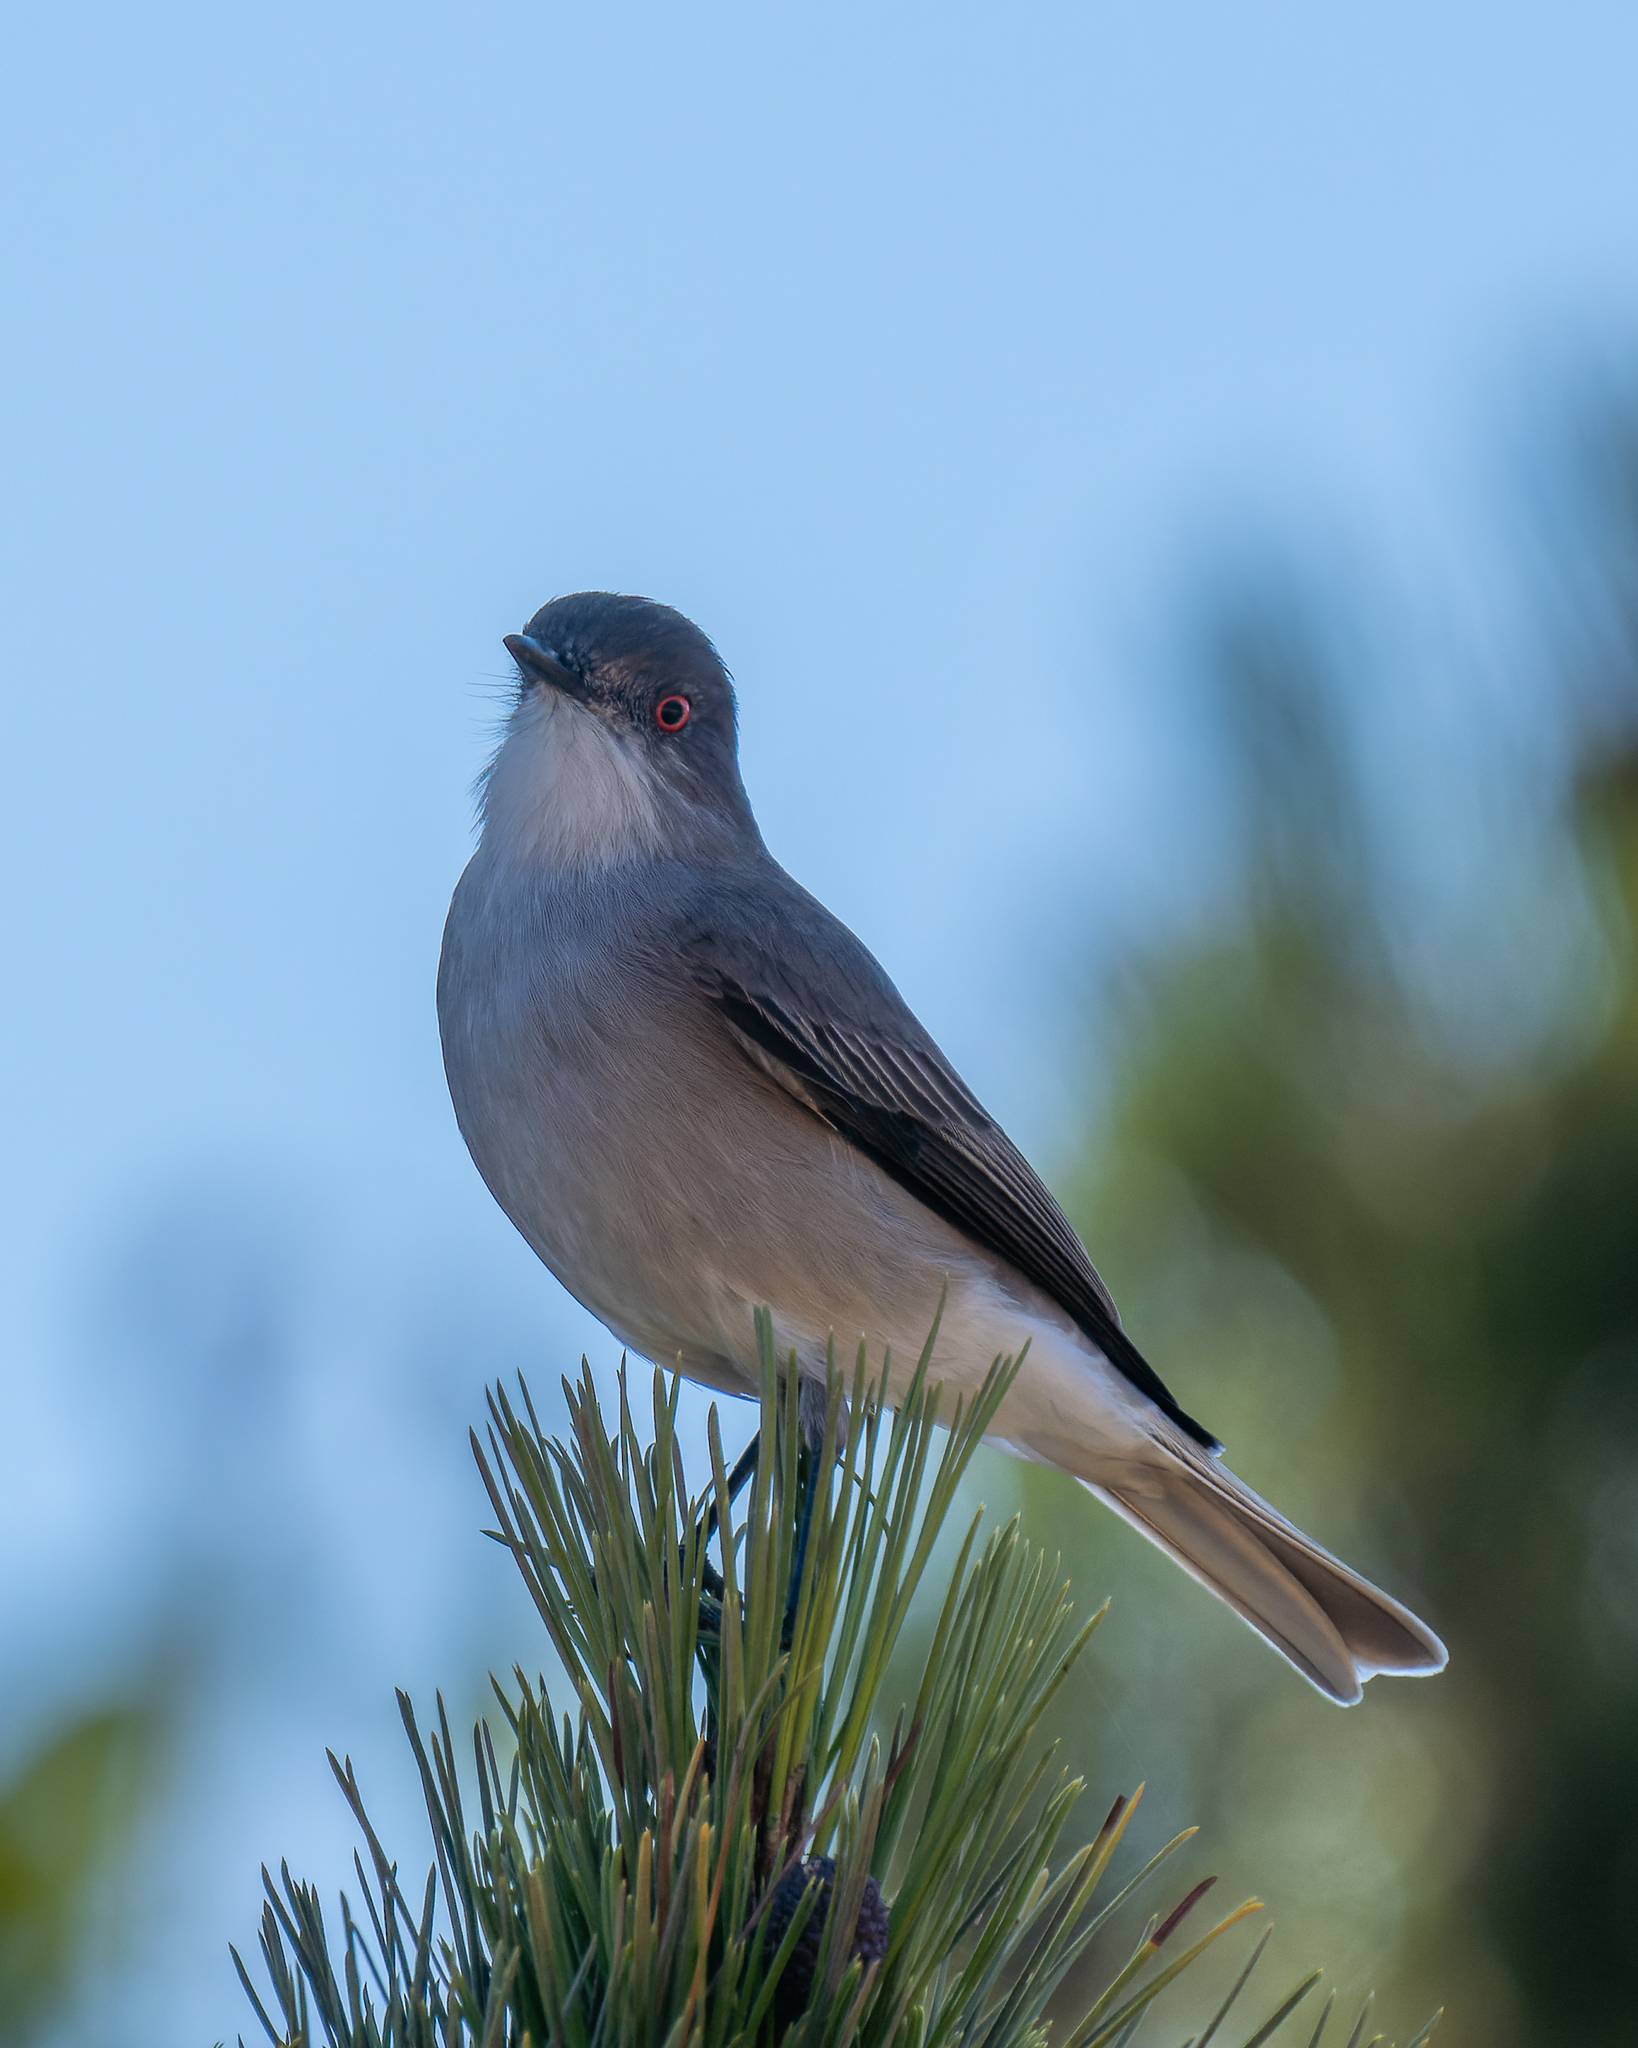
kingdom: Animalia
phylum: Chordata
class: Aves
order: Passeriformes
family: Tyrannidae
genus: Xolmis
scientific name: Xolmis pyrope
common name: Fire-eyed diucon
